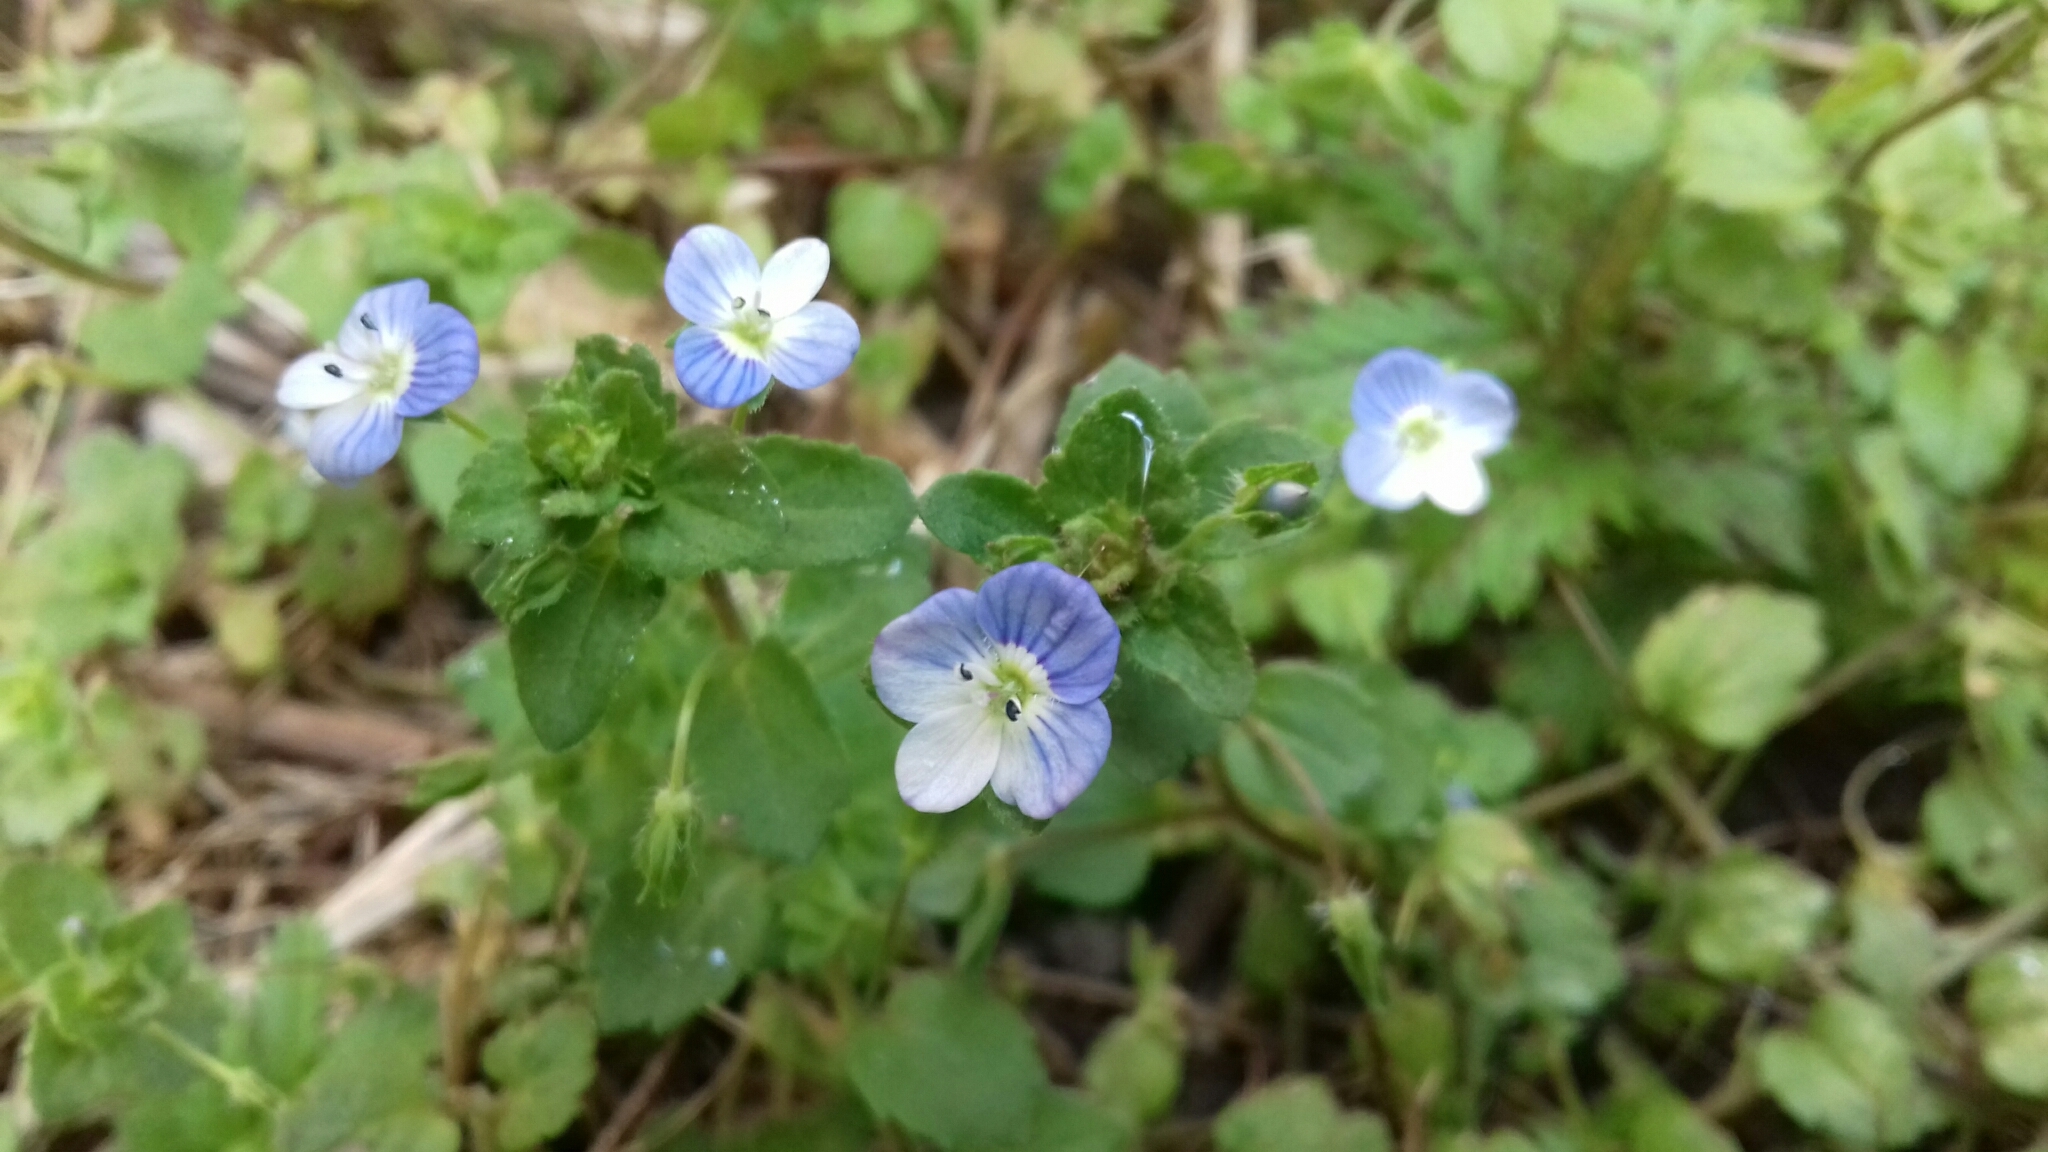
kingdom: Plantae
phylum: Tracheophyta
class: Magnoliopsida
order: Lamiales
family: Plantaginaceae
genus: Veronica
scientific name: Veronica persica
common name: Common field-speedwell
